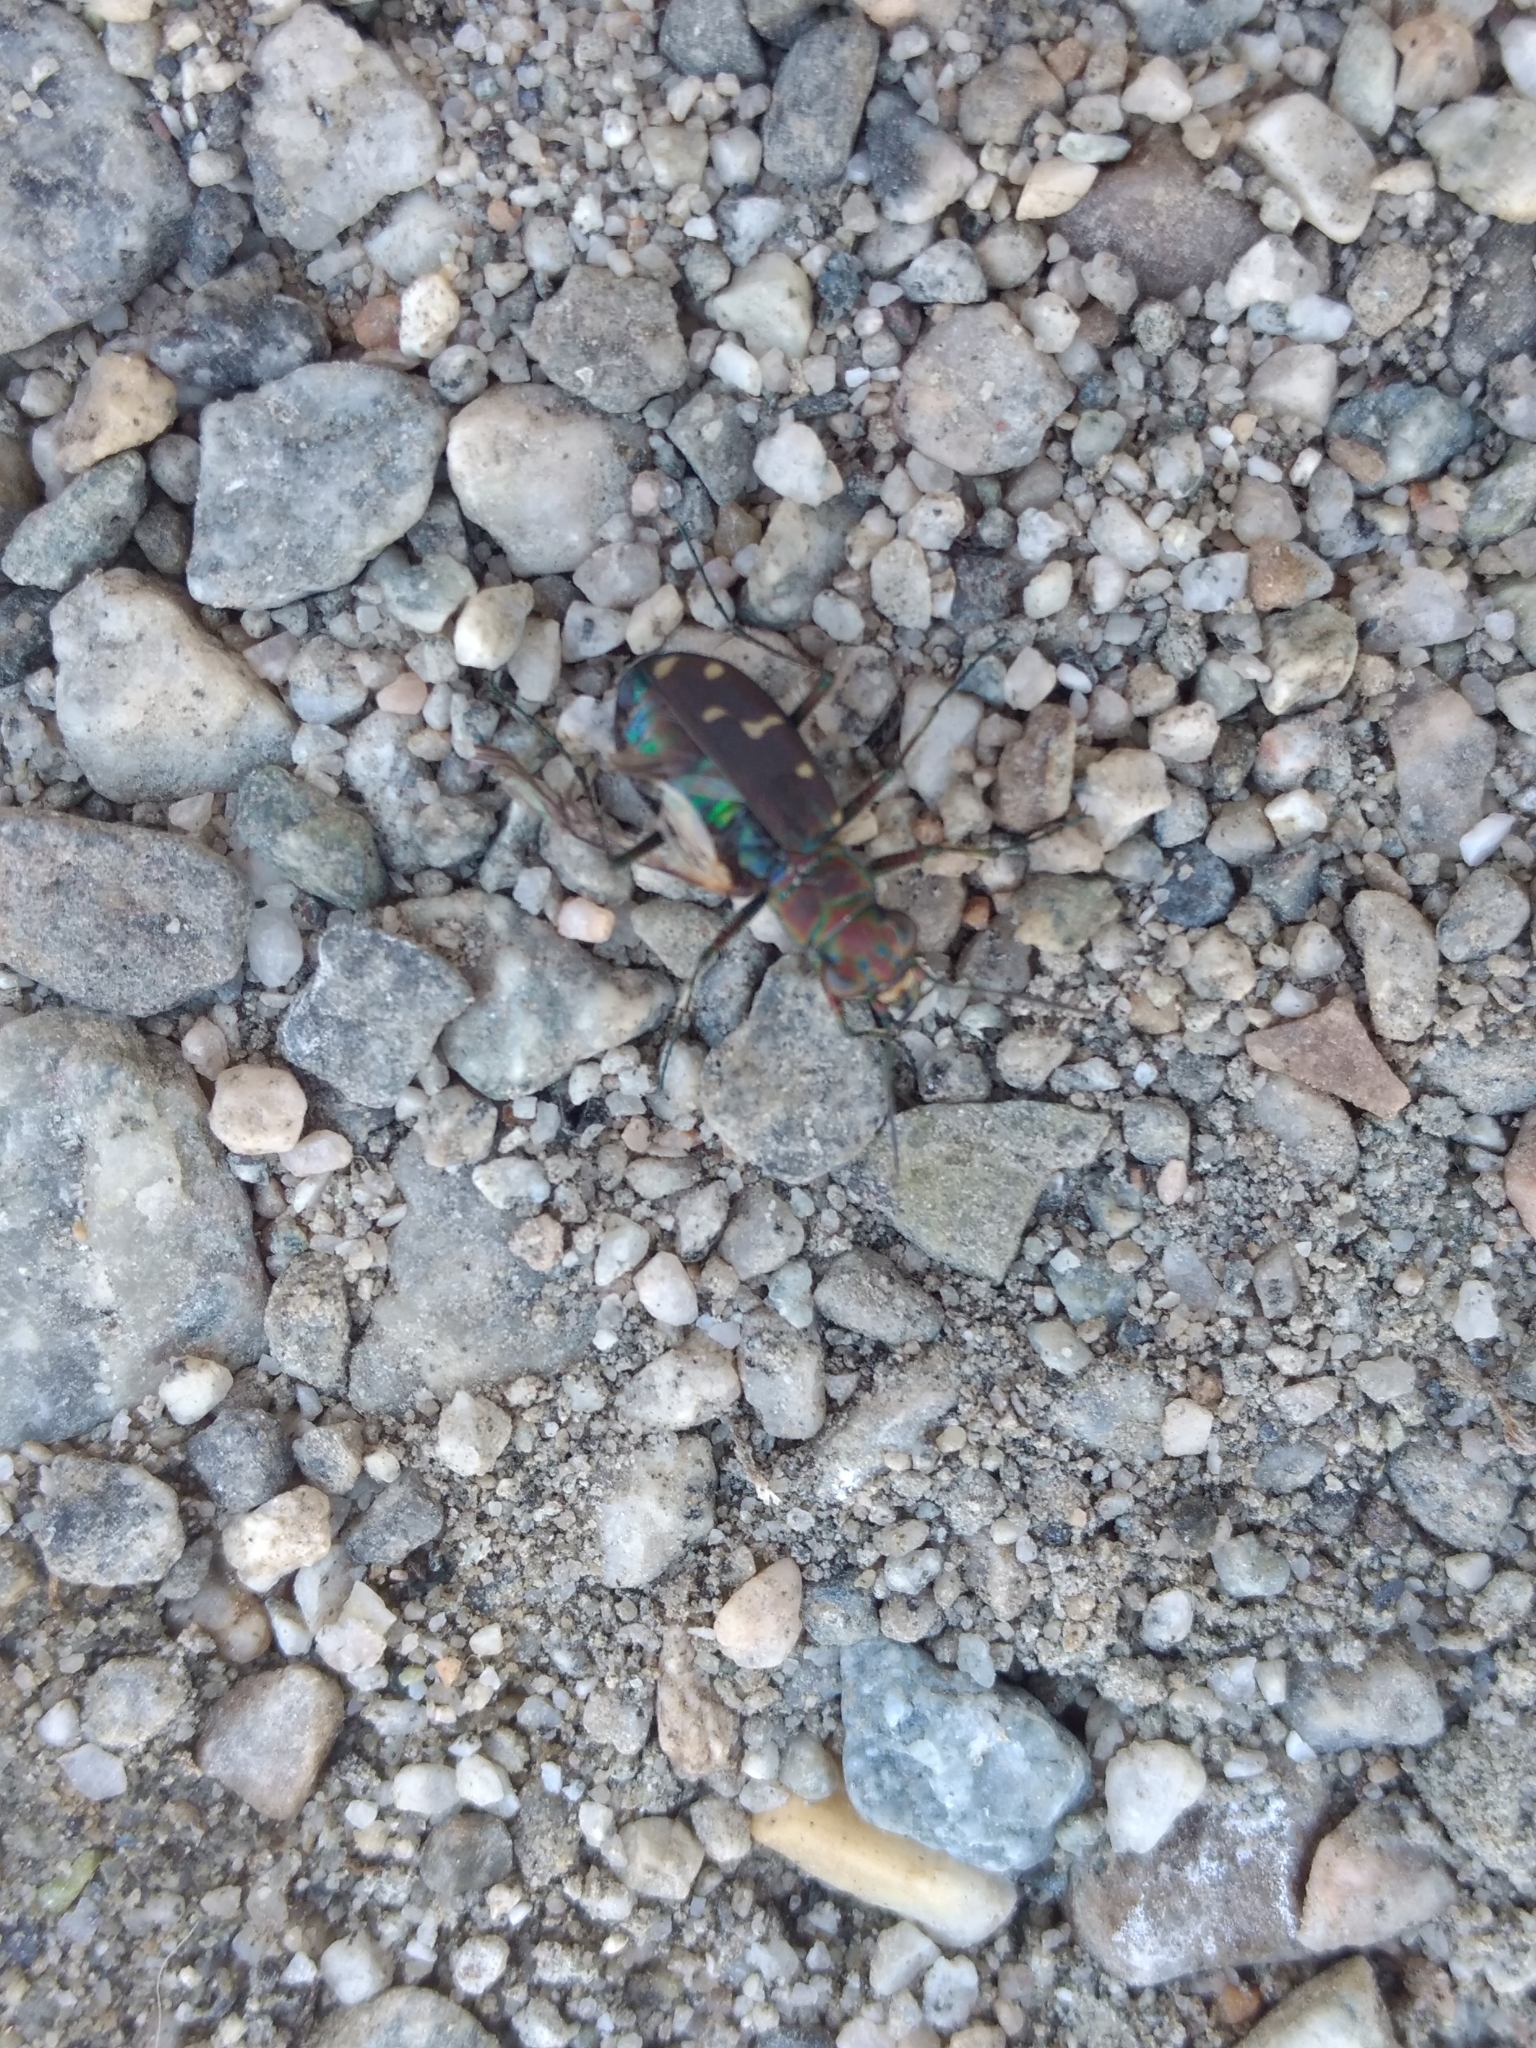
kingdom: Animalia
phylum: Arthropoda
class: Insecta
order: Coleoptera
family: Carabidae
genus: Cicindela
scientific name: Cicindela oregona
